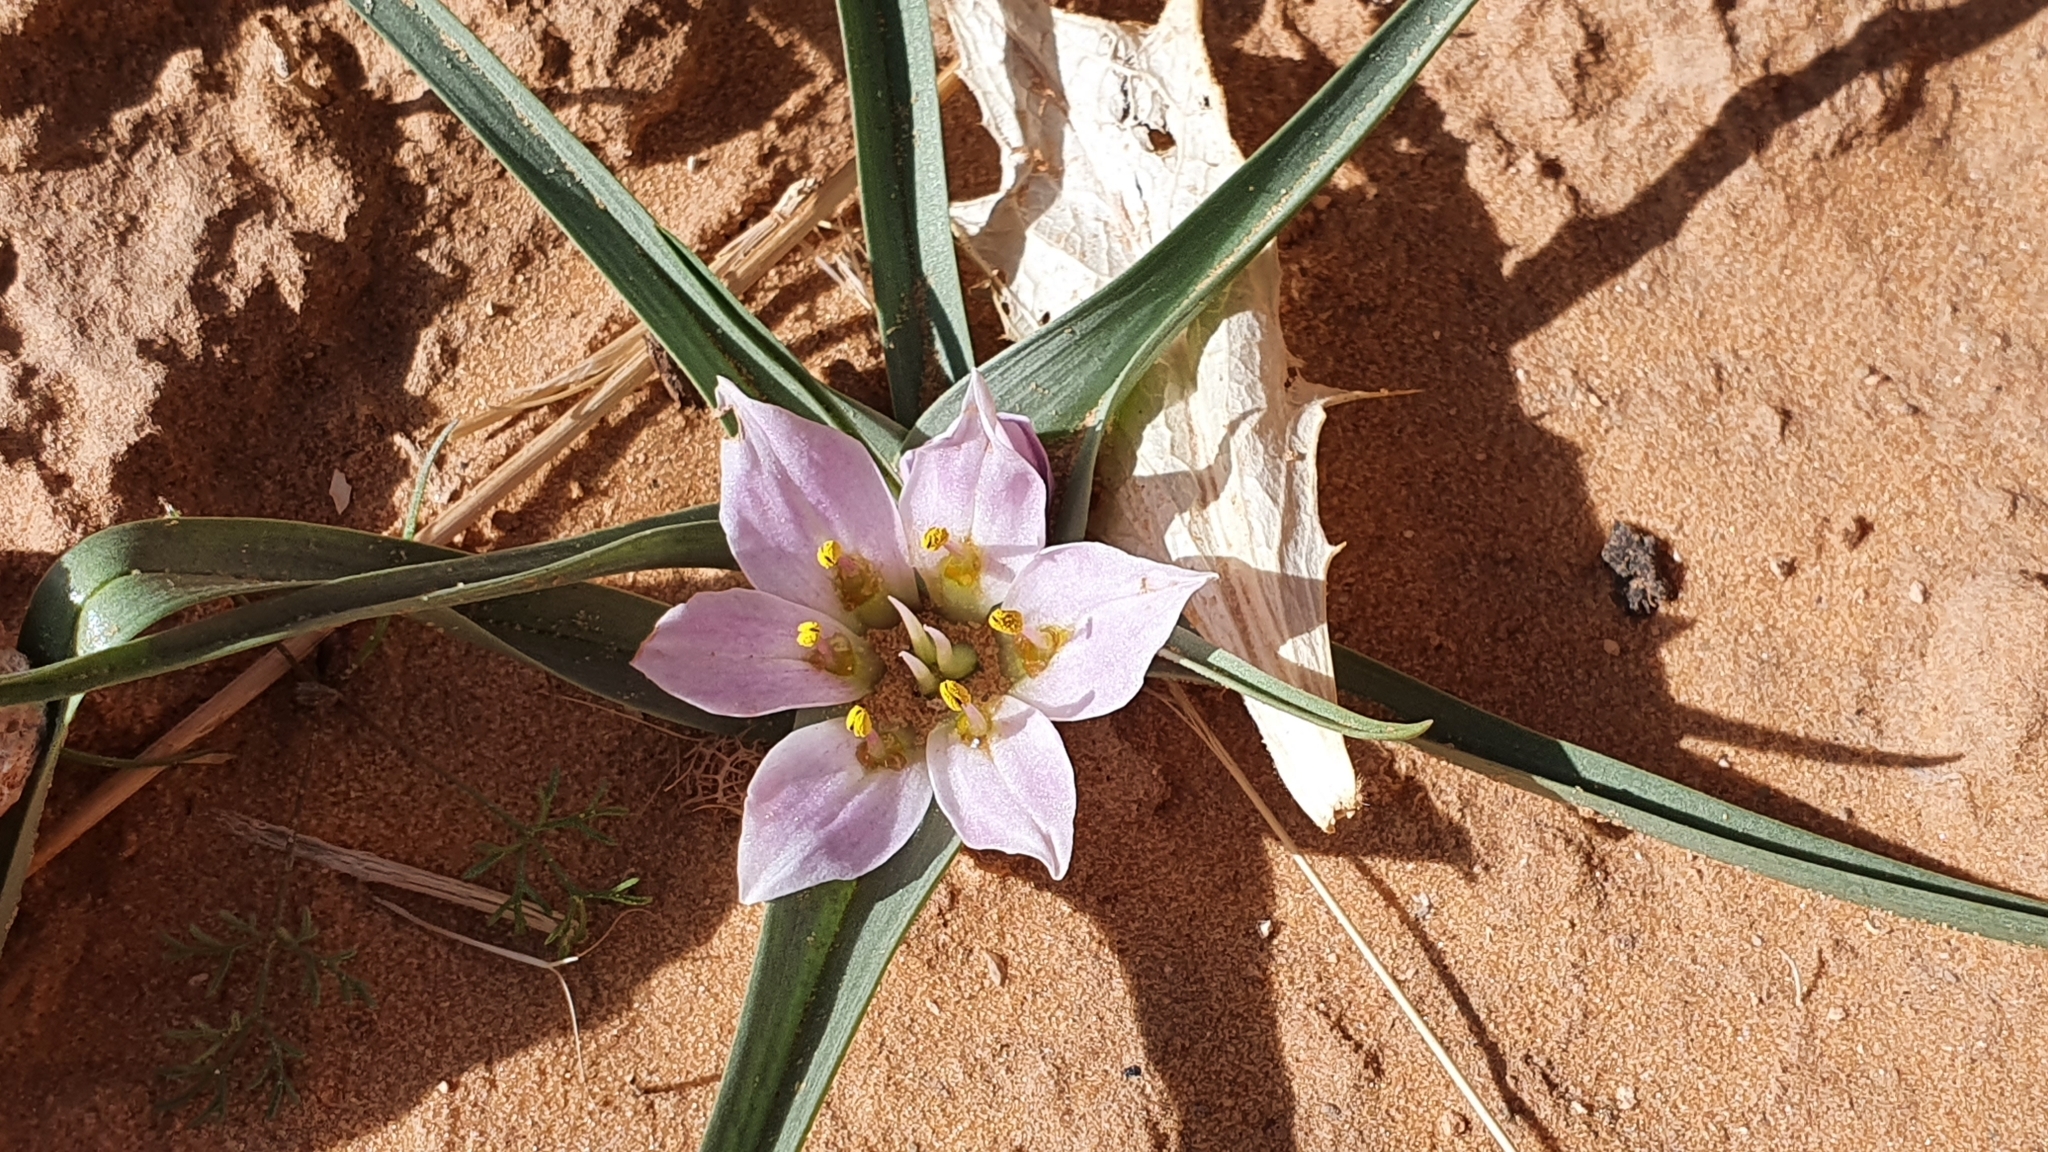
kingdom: Plantae
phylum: Tracheophyta
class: Liliopsida
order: Liliales
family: Colchicaceae
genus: Colchicum
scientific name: Colchicum gramineum
